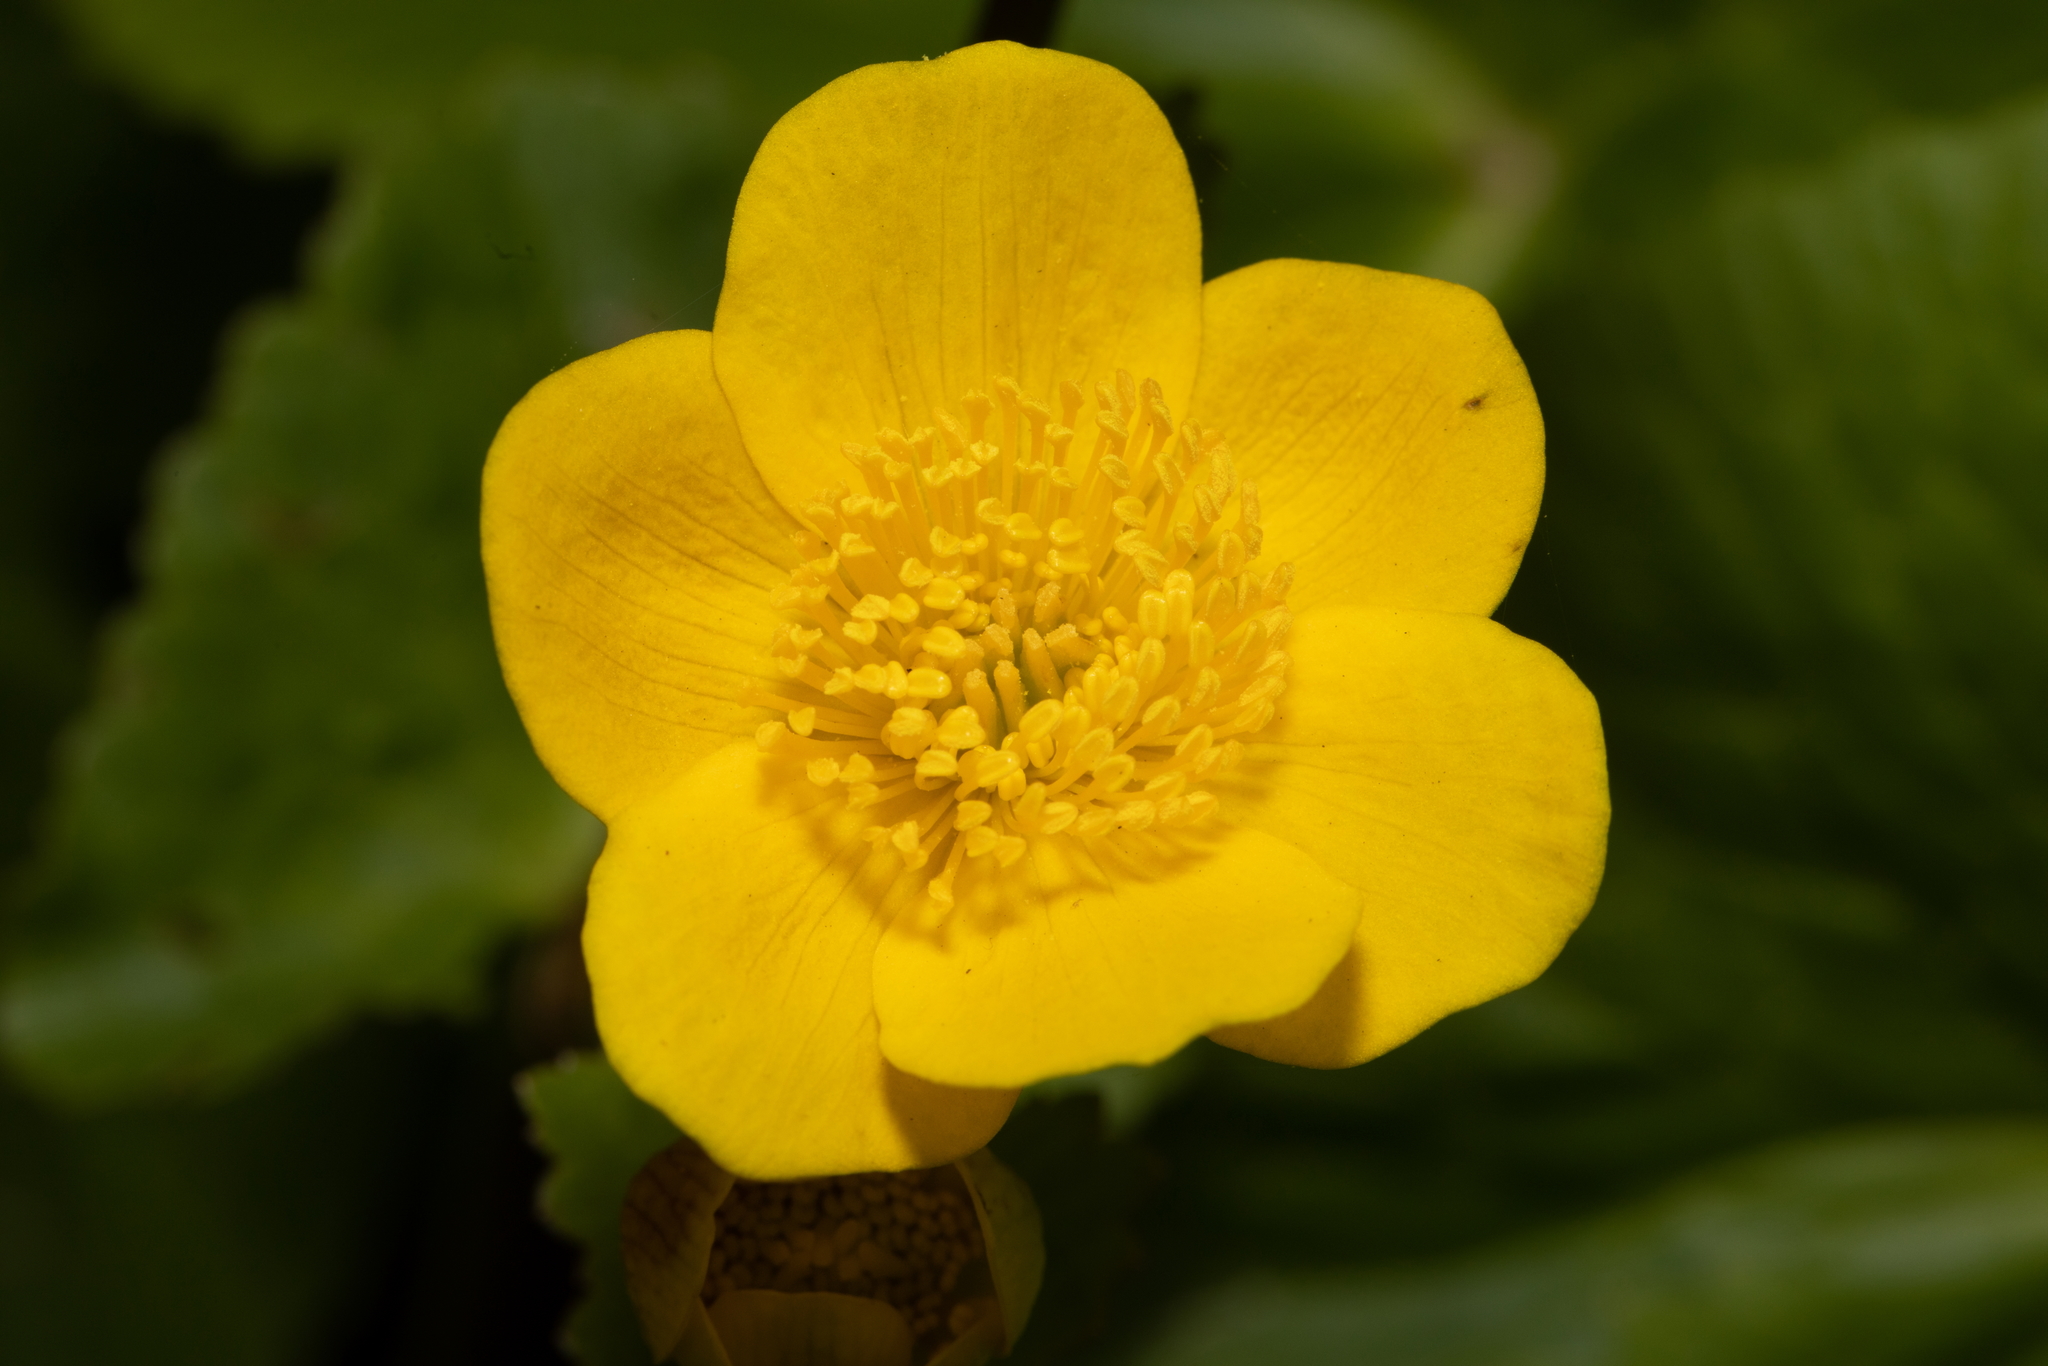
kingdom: Plantae
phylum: Tracheophyta
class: Magnoliopsida
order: Ranunculales
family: Ranunculaceae
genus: Caltha
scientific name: Caltha palustris
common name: Marsh marigold
